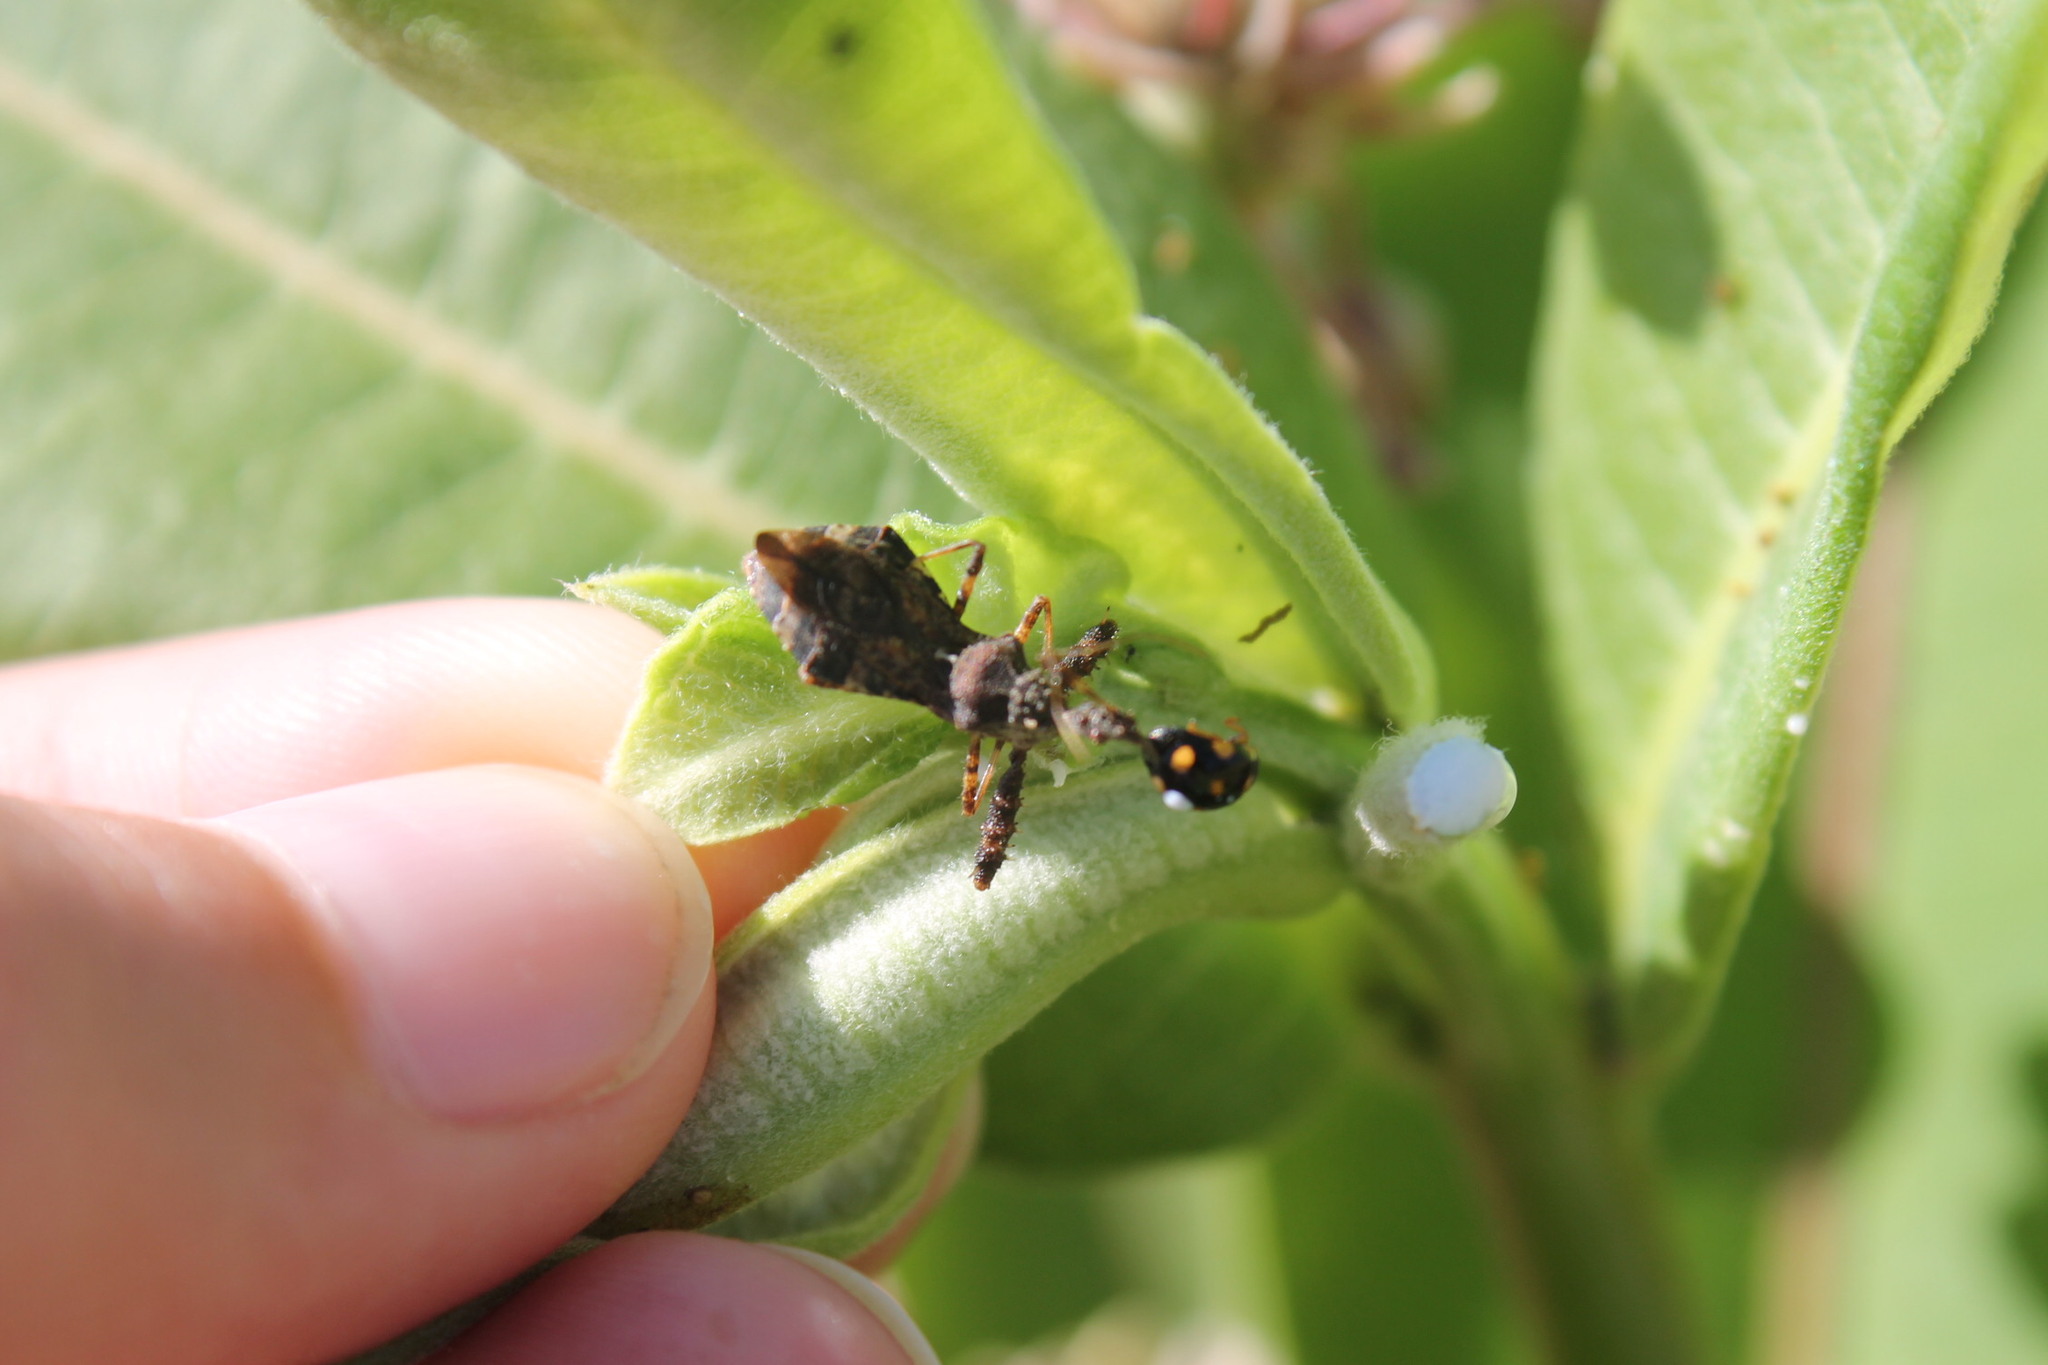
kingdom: Animalia
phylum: Arthropoda
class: Insecta
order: Hemiptera
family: Reduviidae
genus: Sinea
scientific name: Sinea diadema
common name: Spined assassin bug
